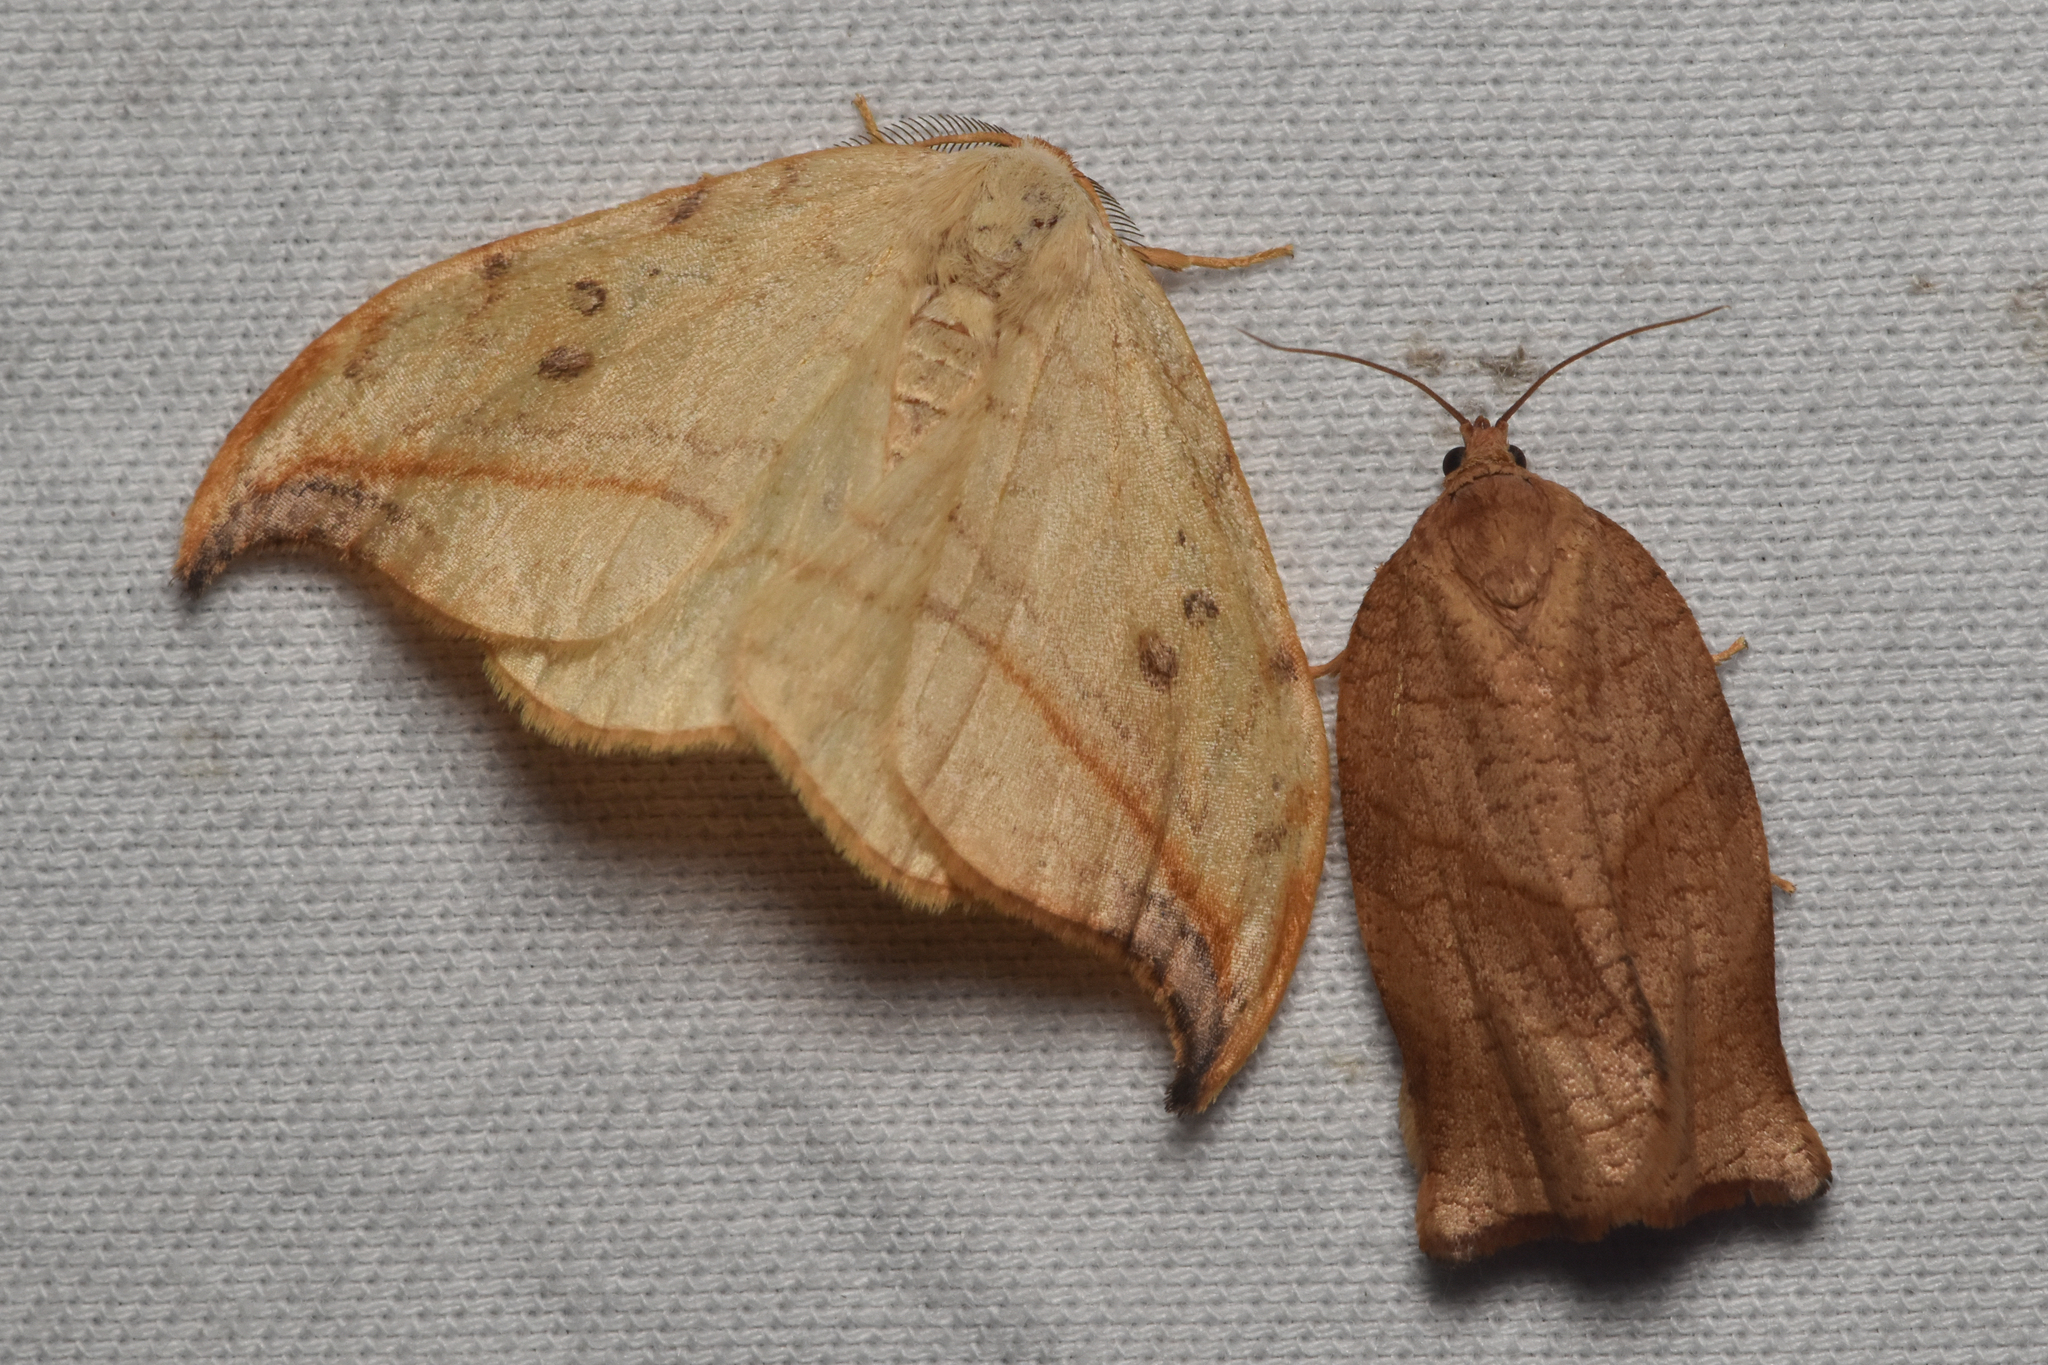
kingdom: Animalia
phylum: Arthropoda
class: Insecta
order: Lepidoptera
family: Drepanidae
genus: Drepana
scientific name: Drepana arcuata
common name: Arched hooktip moth
